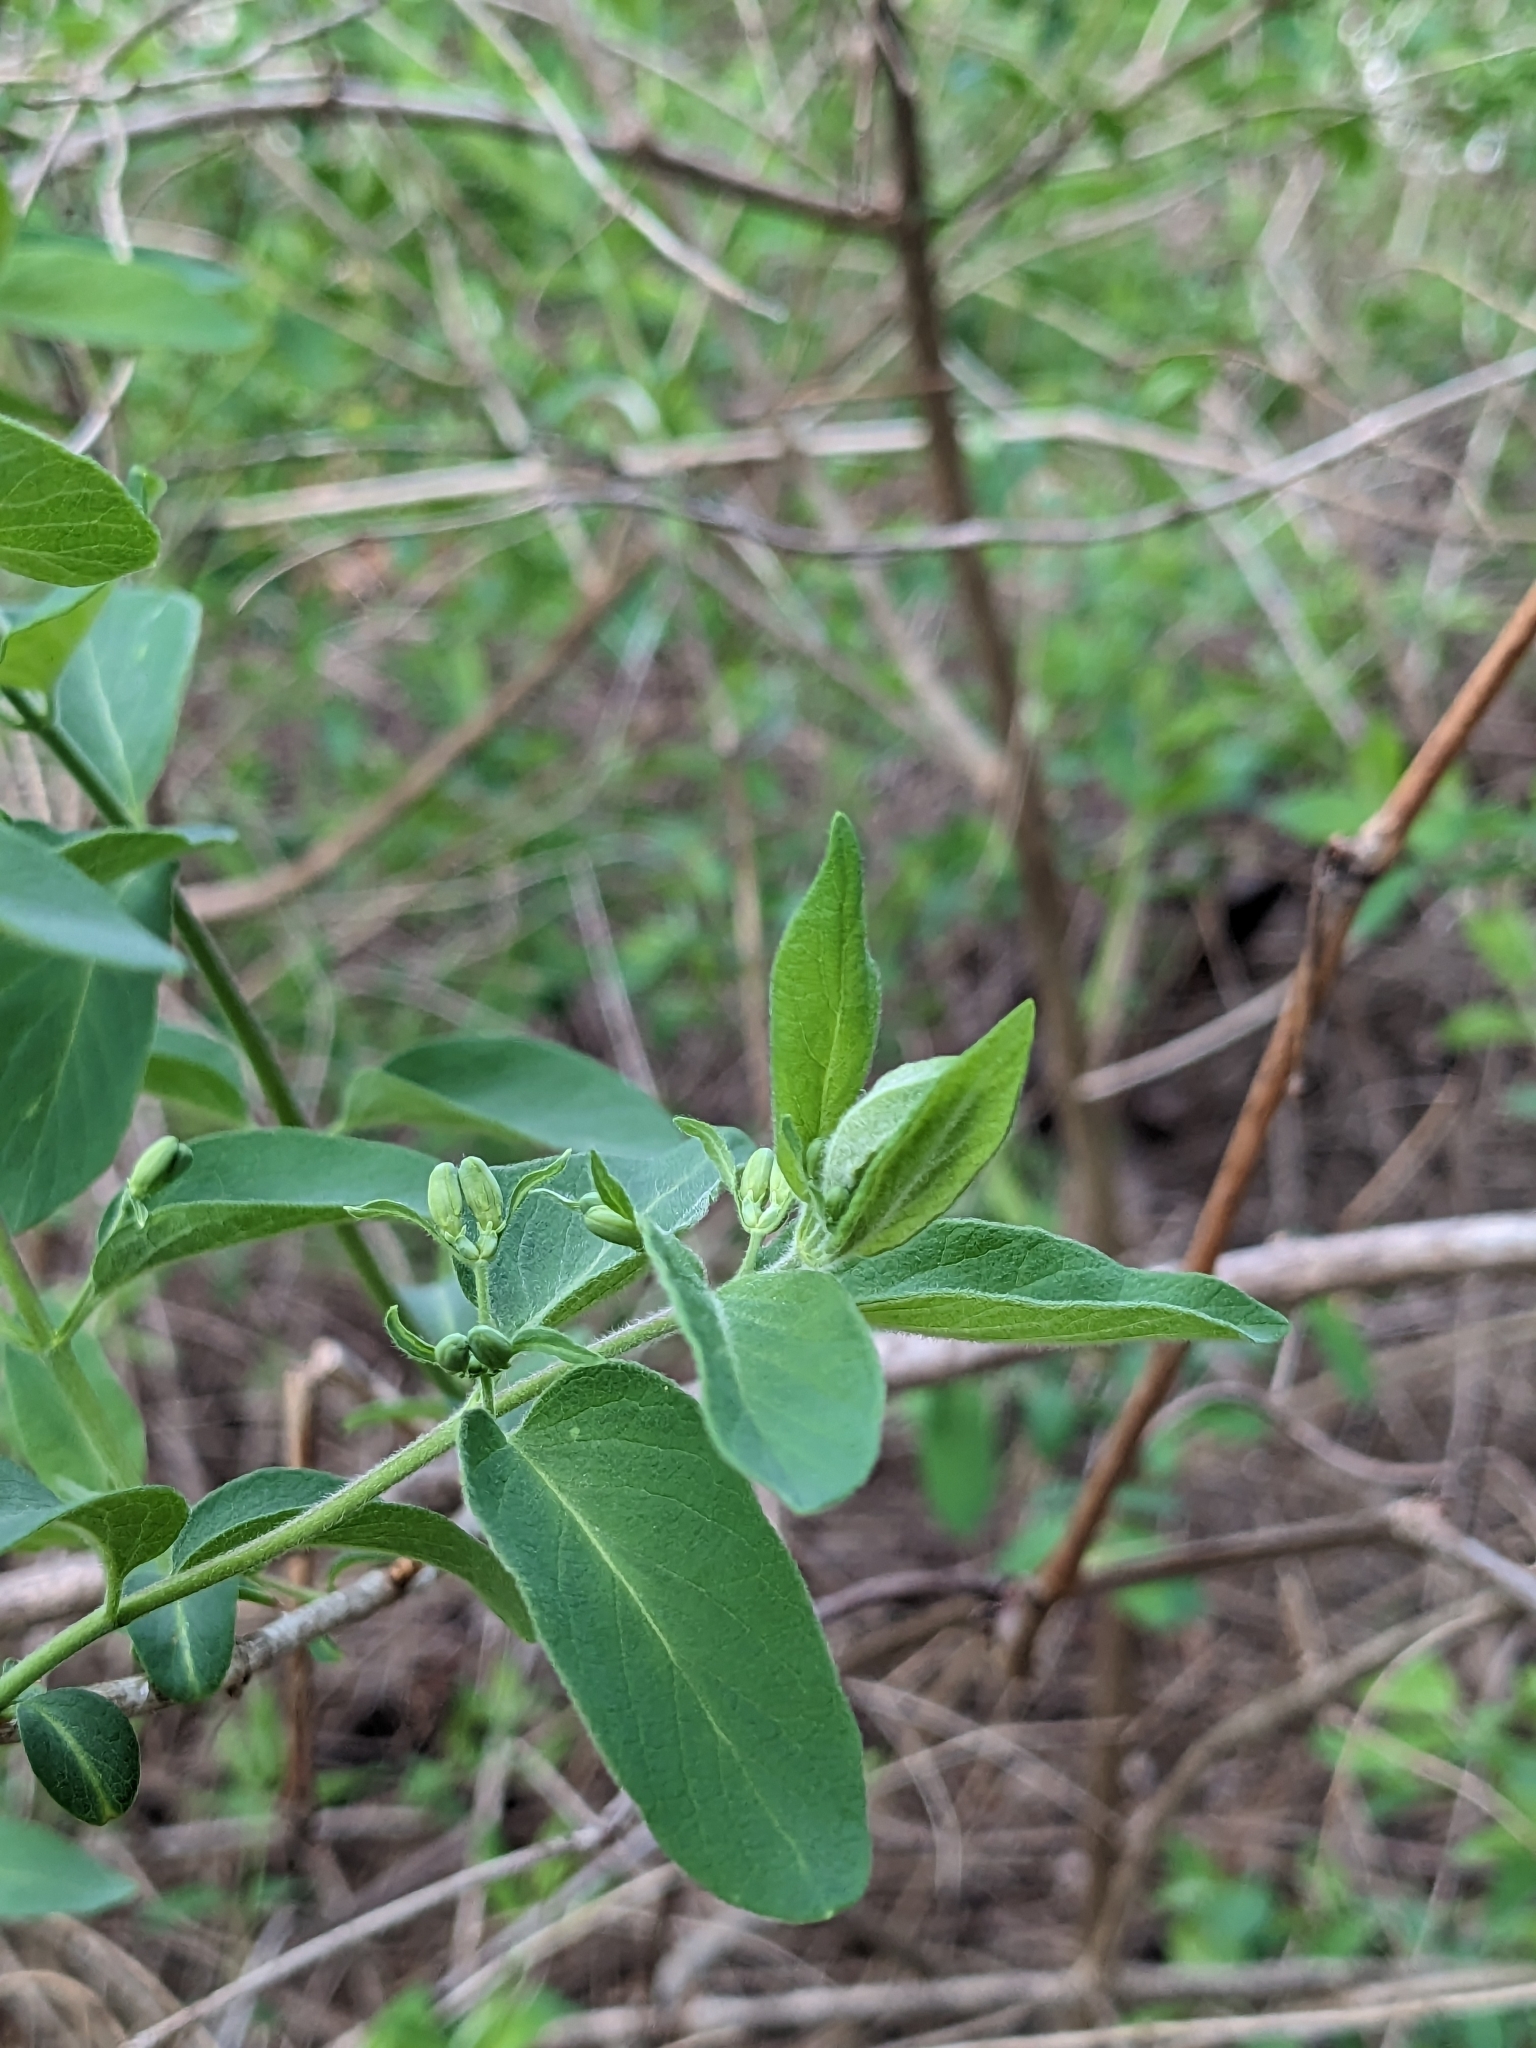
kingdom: Plantae
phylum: Tracheophyta
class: Magnoliopsida
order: Dipsacales
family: Caprifoliaceae
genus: Lonicera
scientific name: Lonicera
